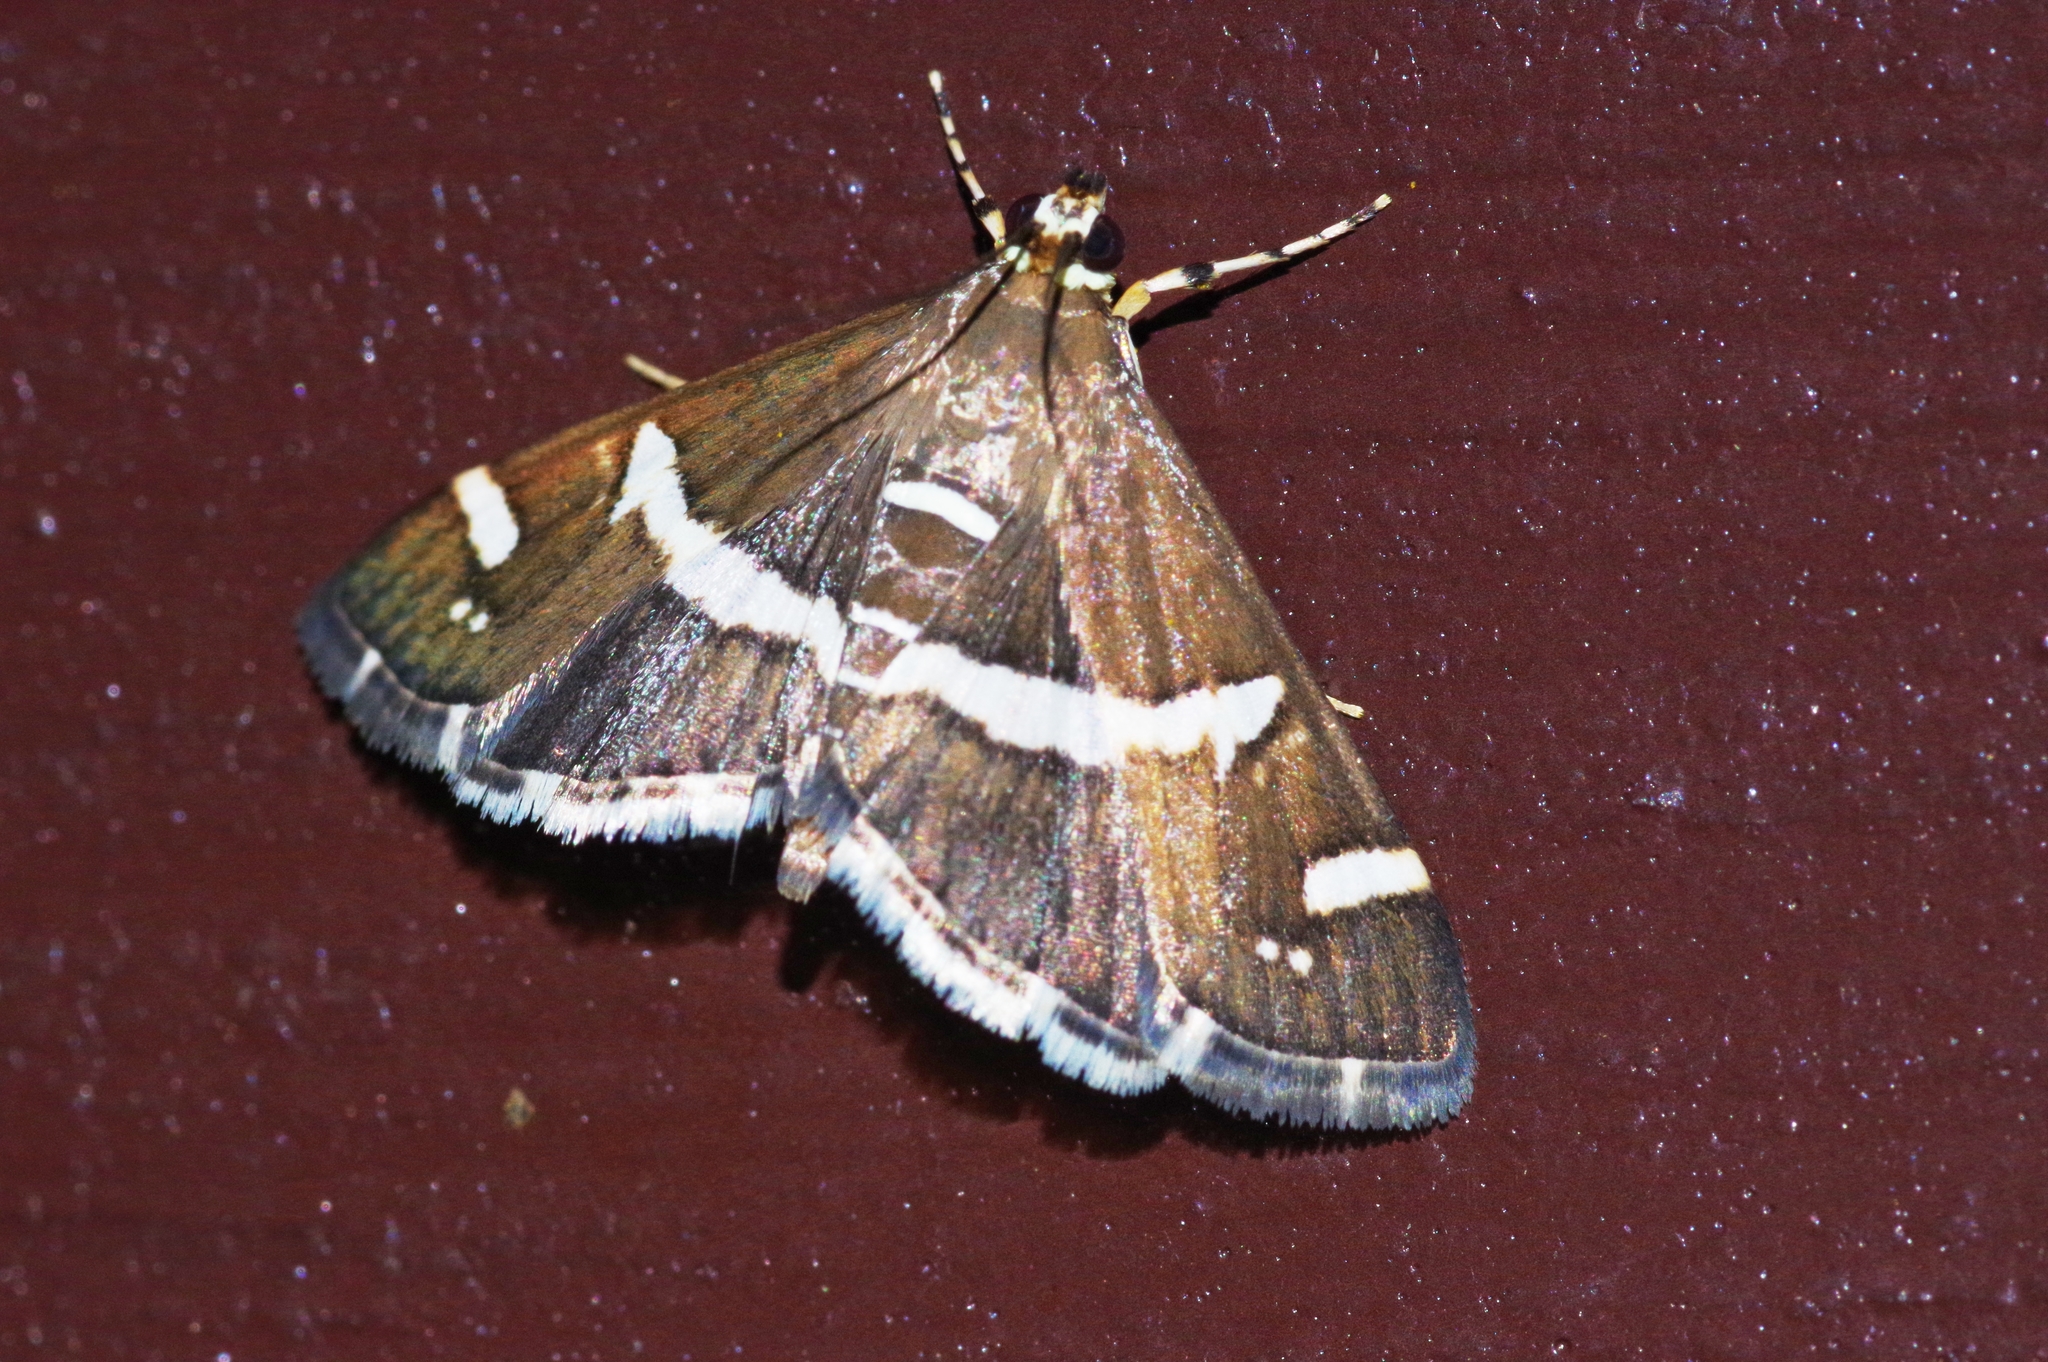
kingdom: Animalia
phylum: Arthropoda
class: Insecta
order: Lepidoptera
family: Crambidae
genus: Spoladea
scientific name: Spoladea recurvalis
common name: Beet webworm moth
